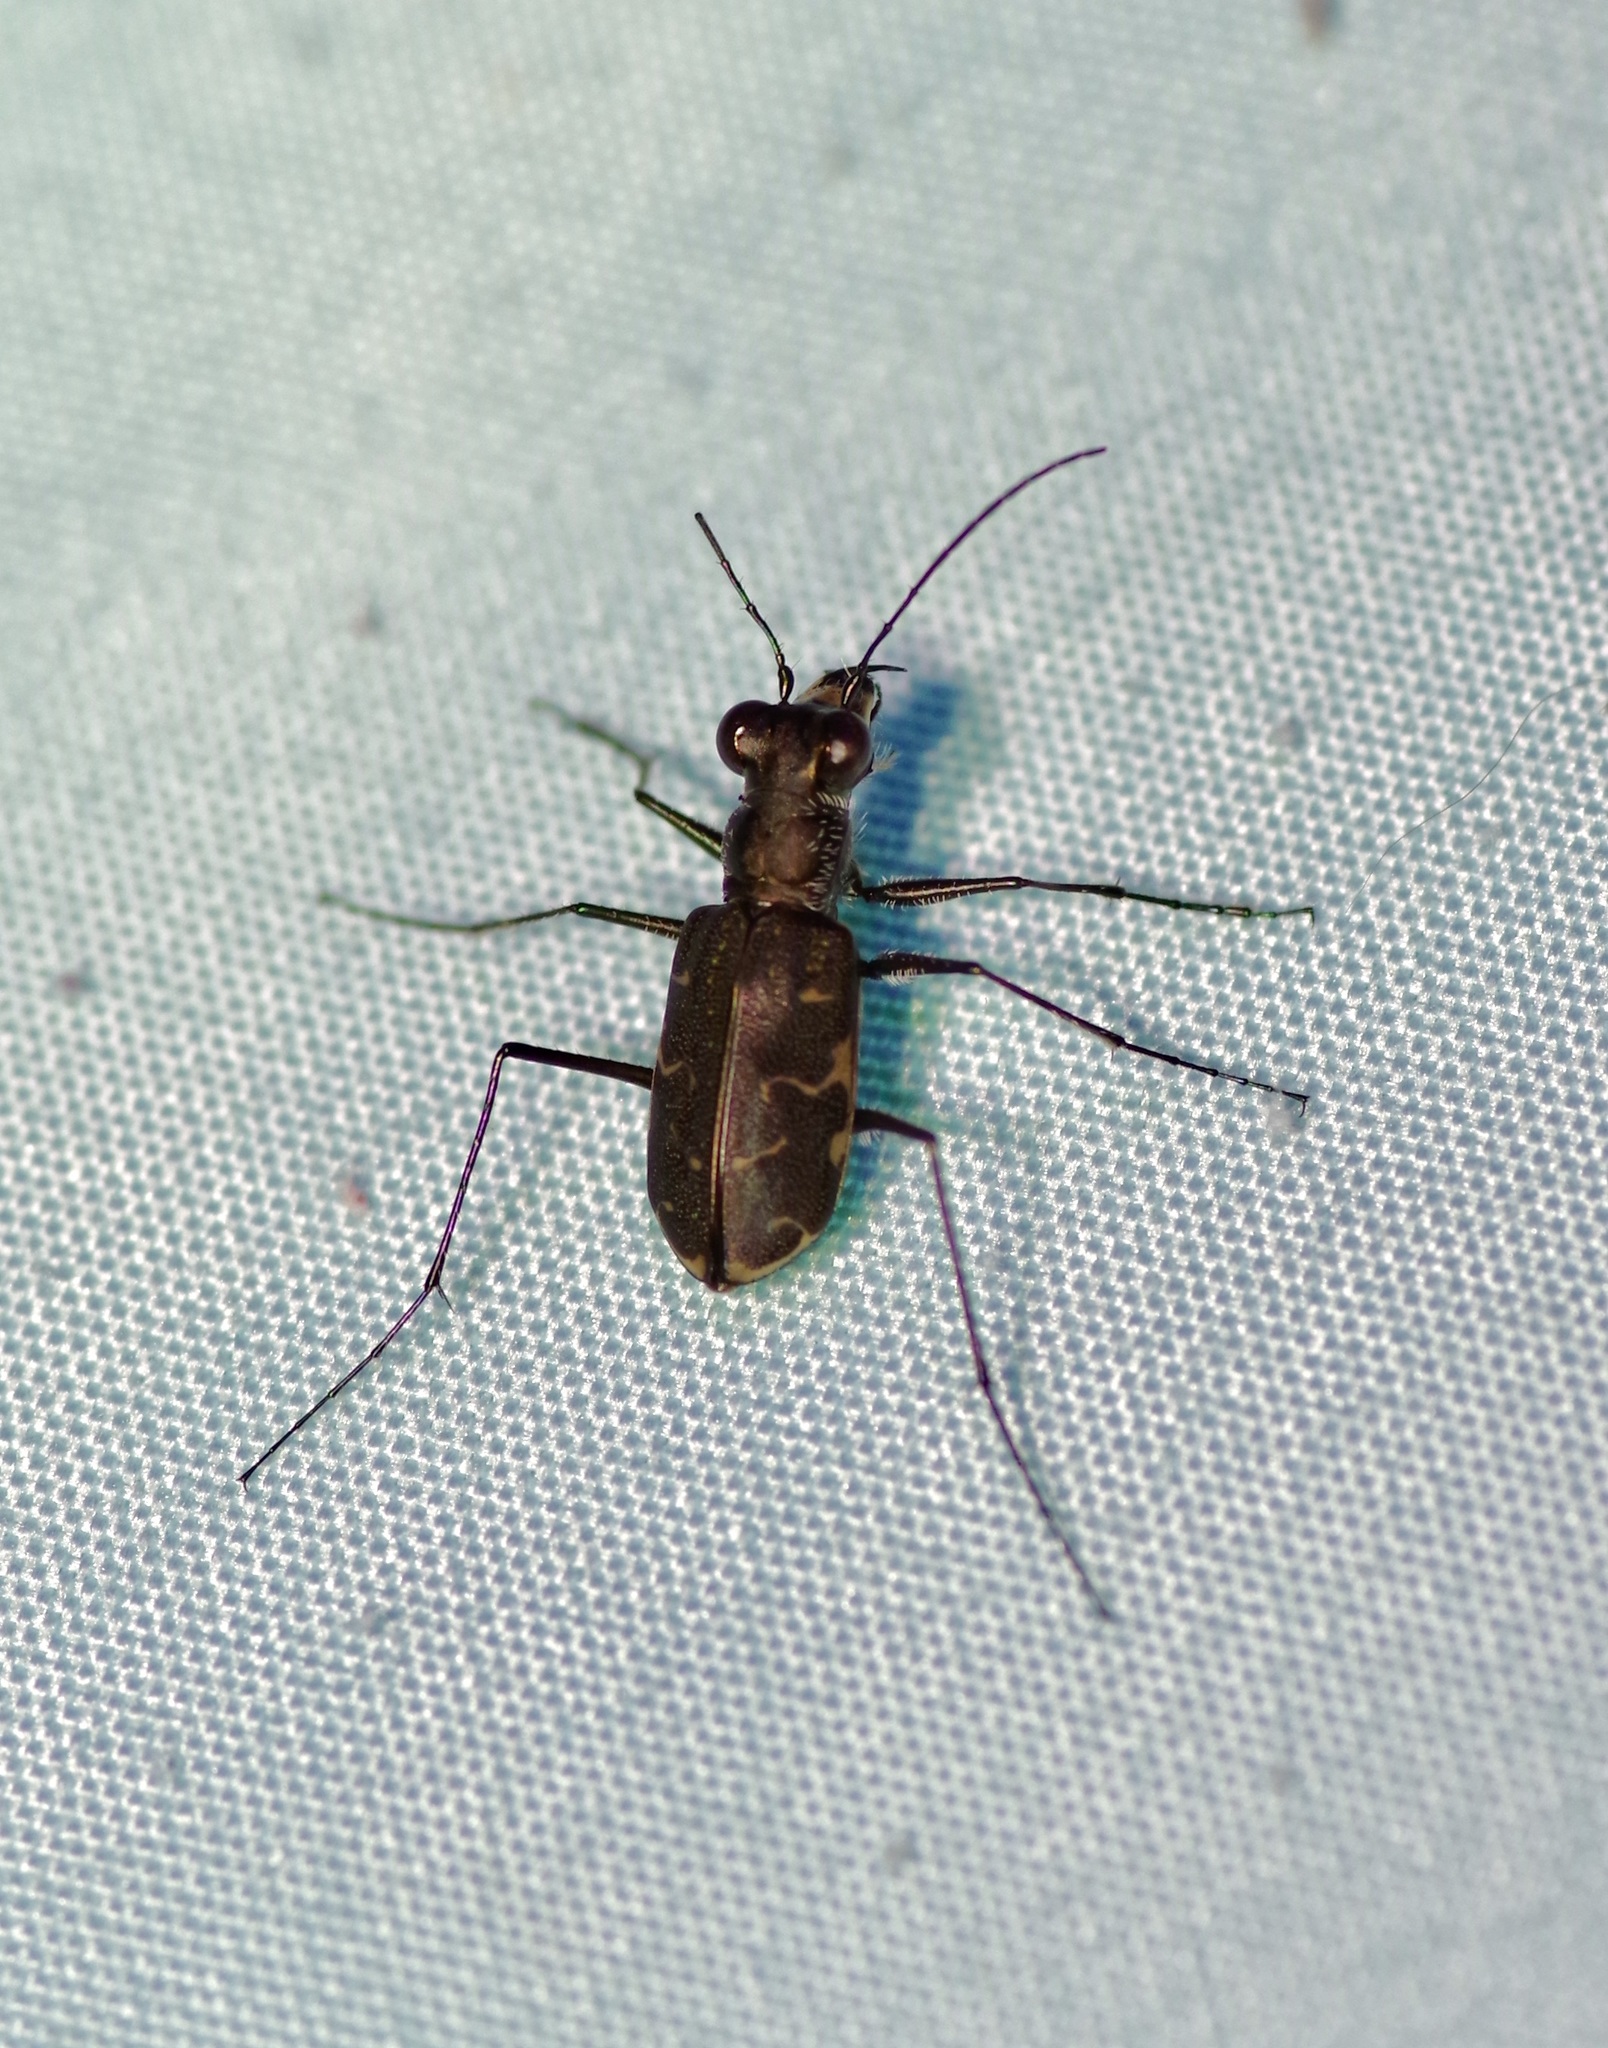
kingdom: Animalia
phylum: Arthropoda
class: Insecta
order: Coleoptera
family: Carabidae
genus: Cicindela
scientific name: Cicindela trifasciata
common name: Mudflat tiger beetle
